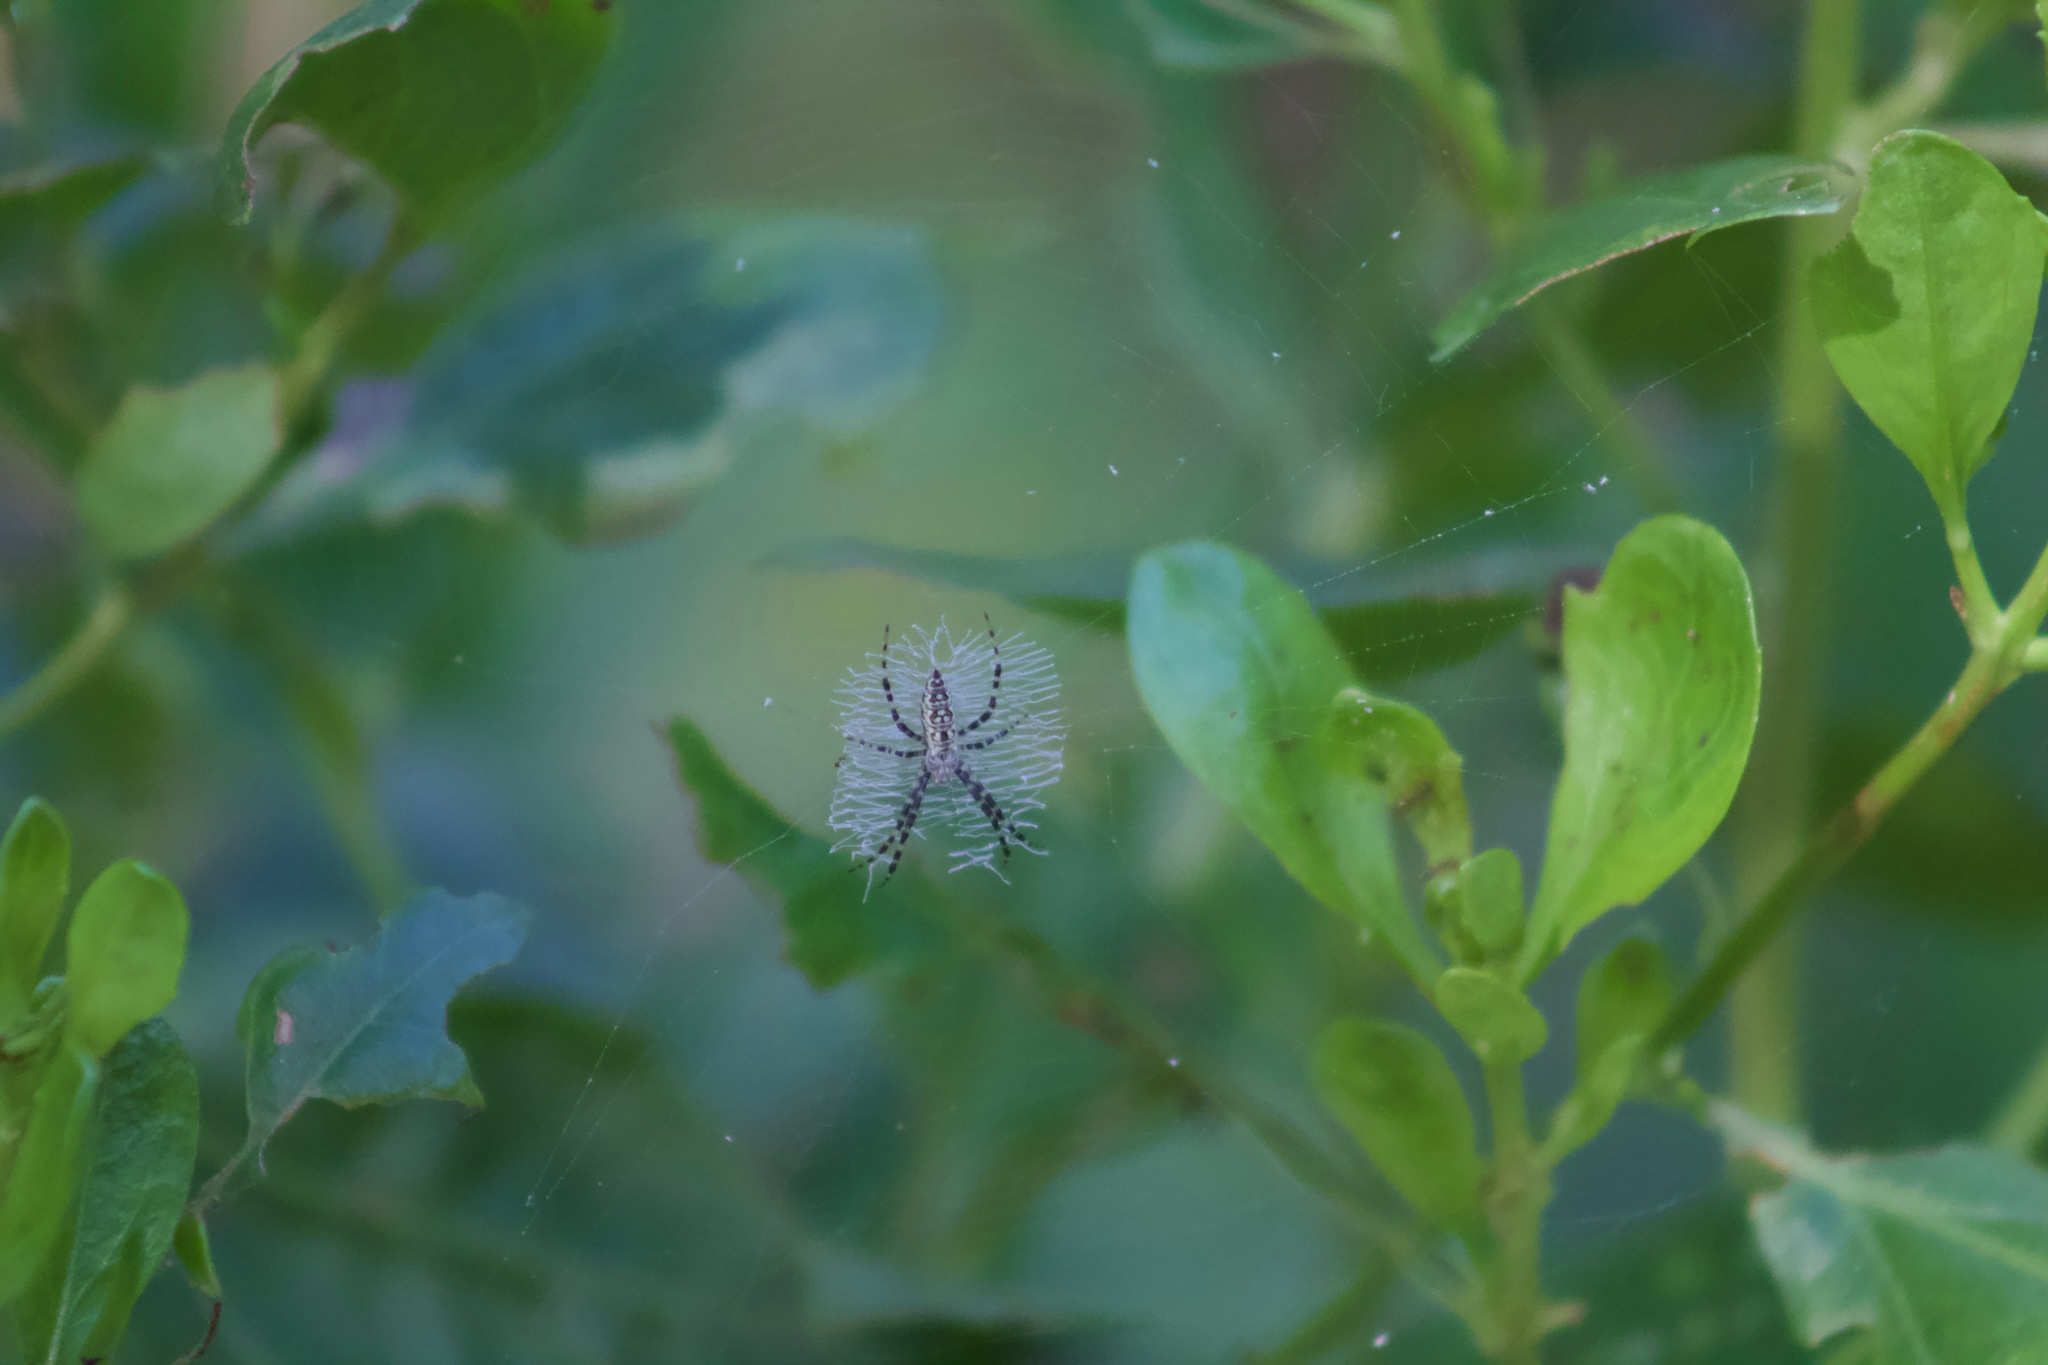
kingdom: Animalia
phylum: Arthropoda
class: Arachnida
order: Araneae
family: Araneidae
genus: Argiope
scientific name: Argiope aurantia
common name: Orb weavers
